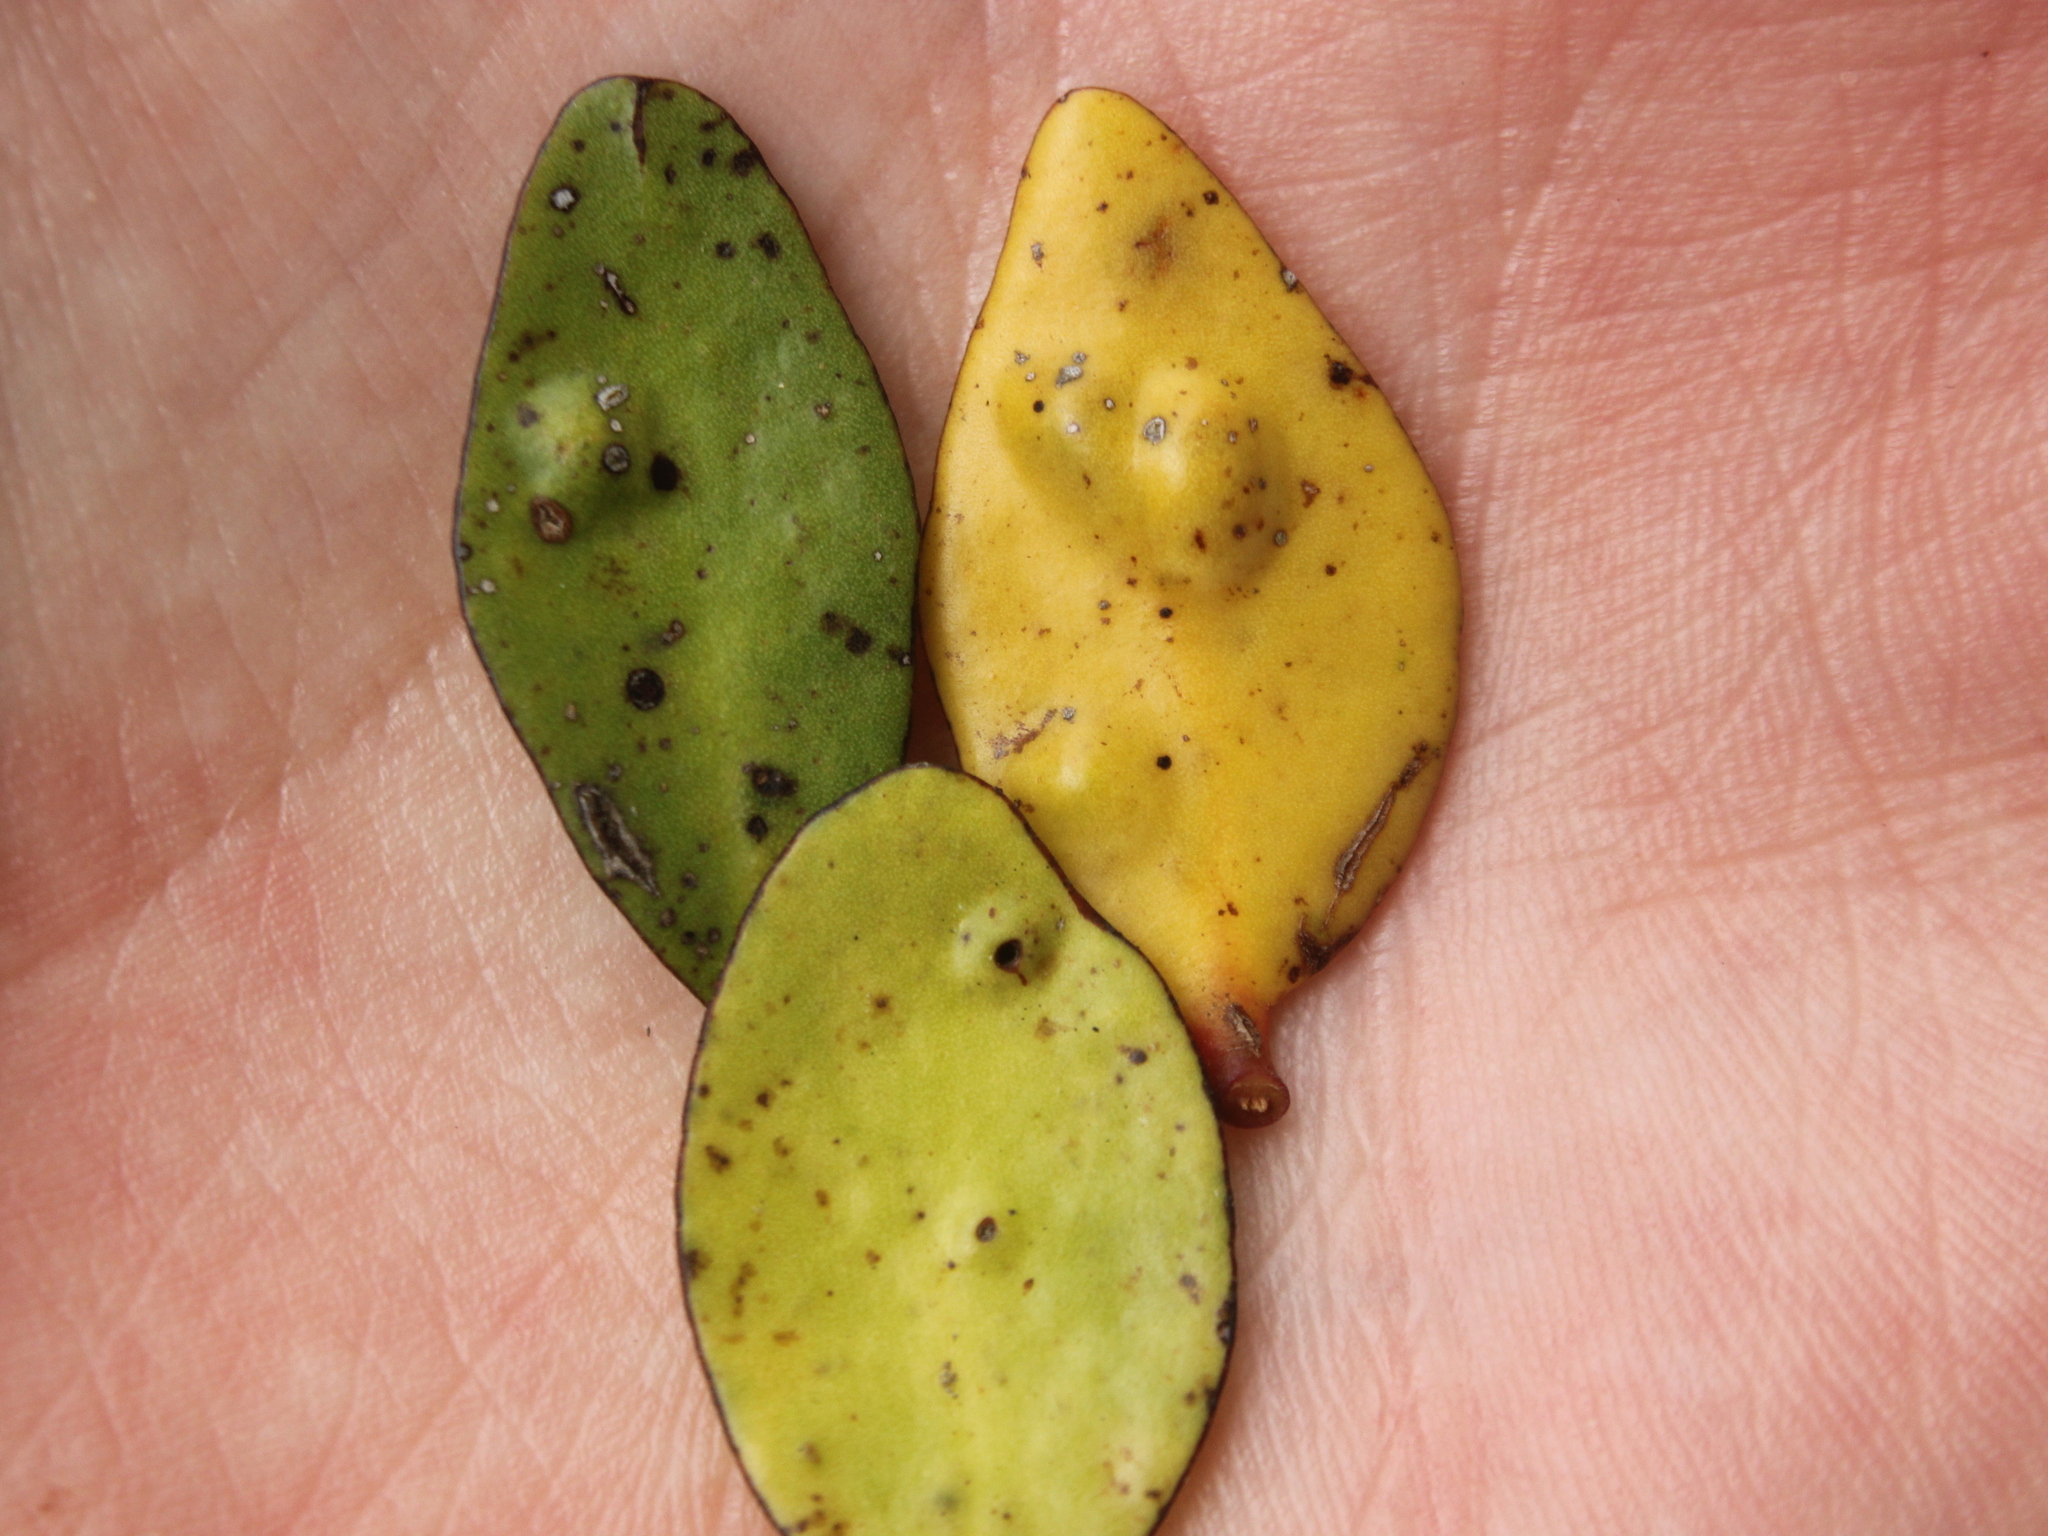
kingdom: Plantae
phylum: Tracheophyta
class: Magnoliopsida
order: Santalales
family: Loranthaceae
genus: Peraxilla
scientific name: Peraxilla tetrapetala
